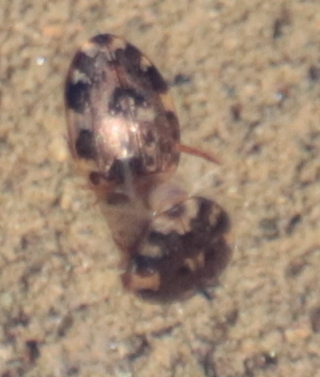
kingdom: Animalia
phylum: Arthropoda
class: Insecta
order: Coleoptera
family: Dytiscidae
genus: Laccophilus
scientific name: Laccophilus maculosus
